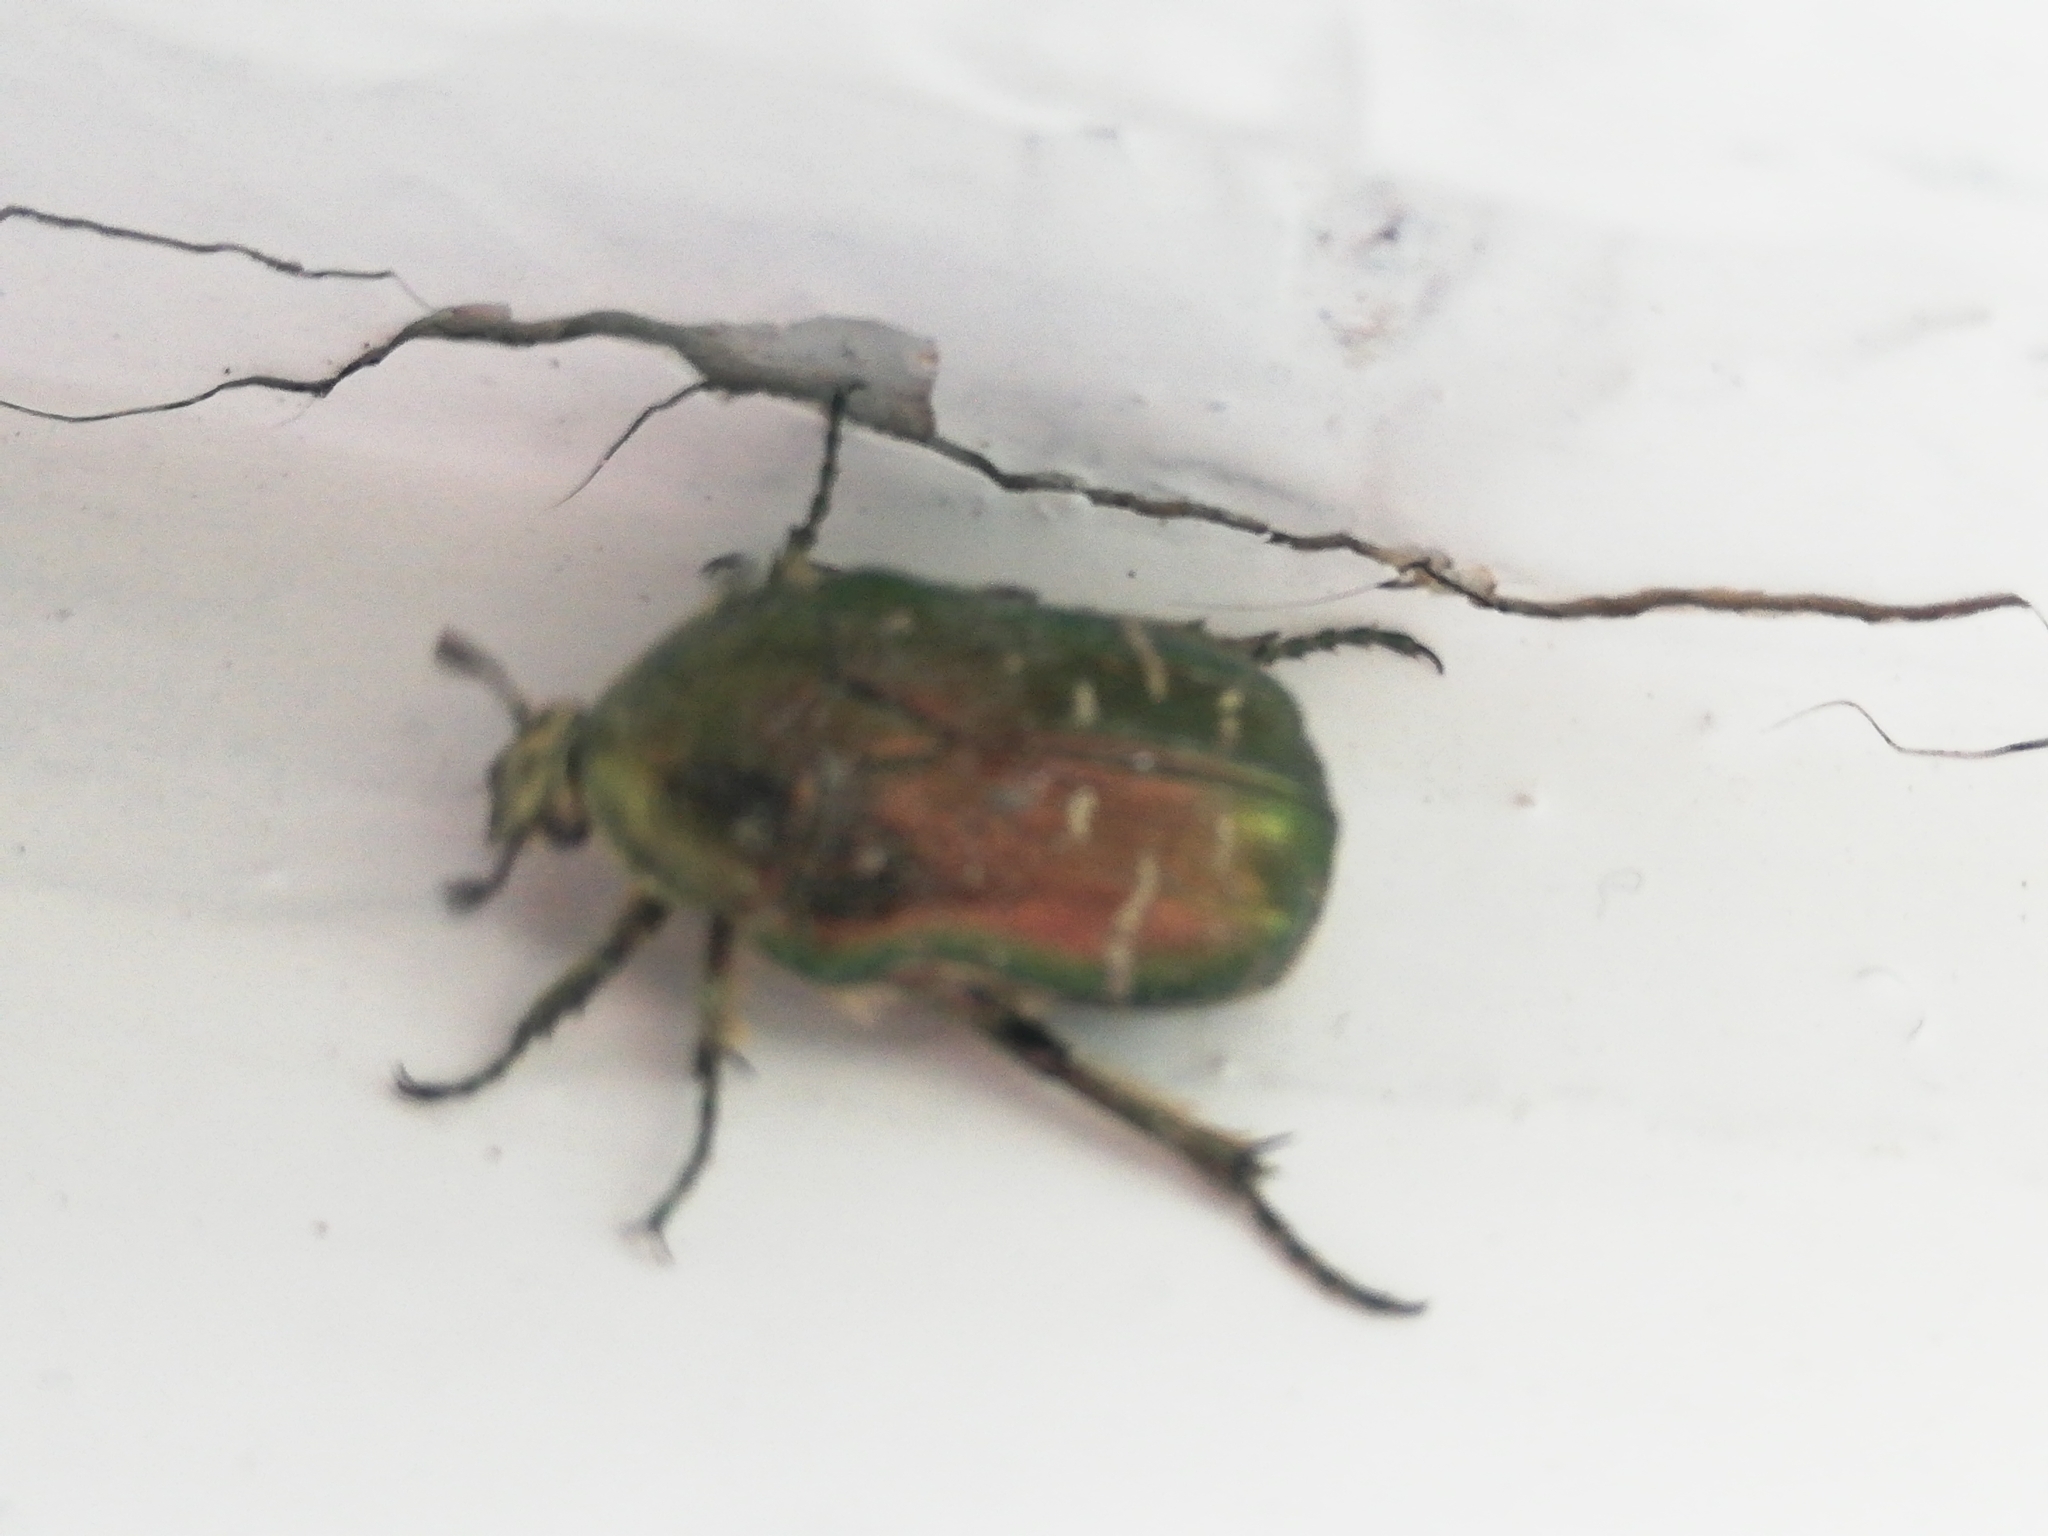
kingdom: Animalia
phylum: Arthropoda
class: Insecta
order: Coleoptera
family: Scarabaeidae
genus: Cetonia
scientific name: Cetonia aurata
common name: Rose chafer
